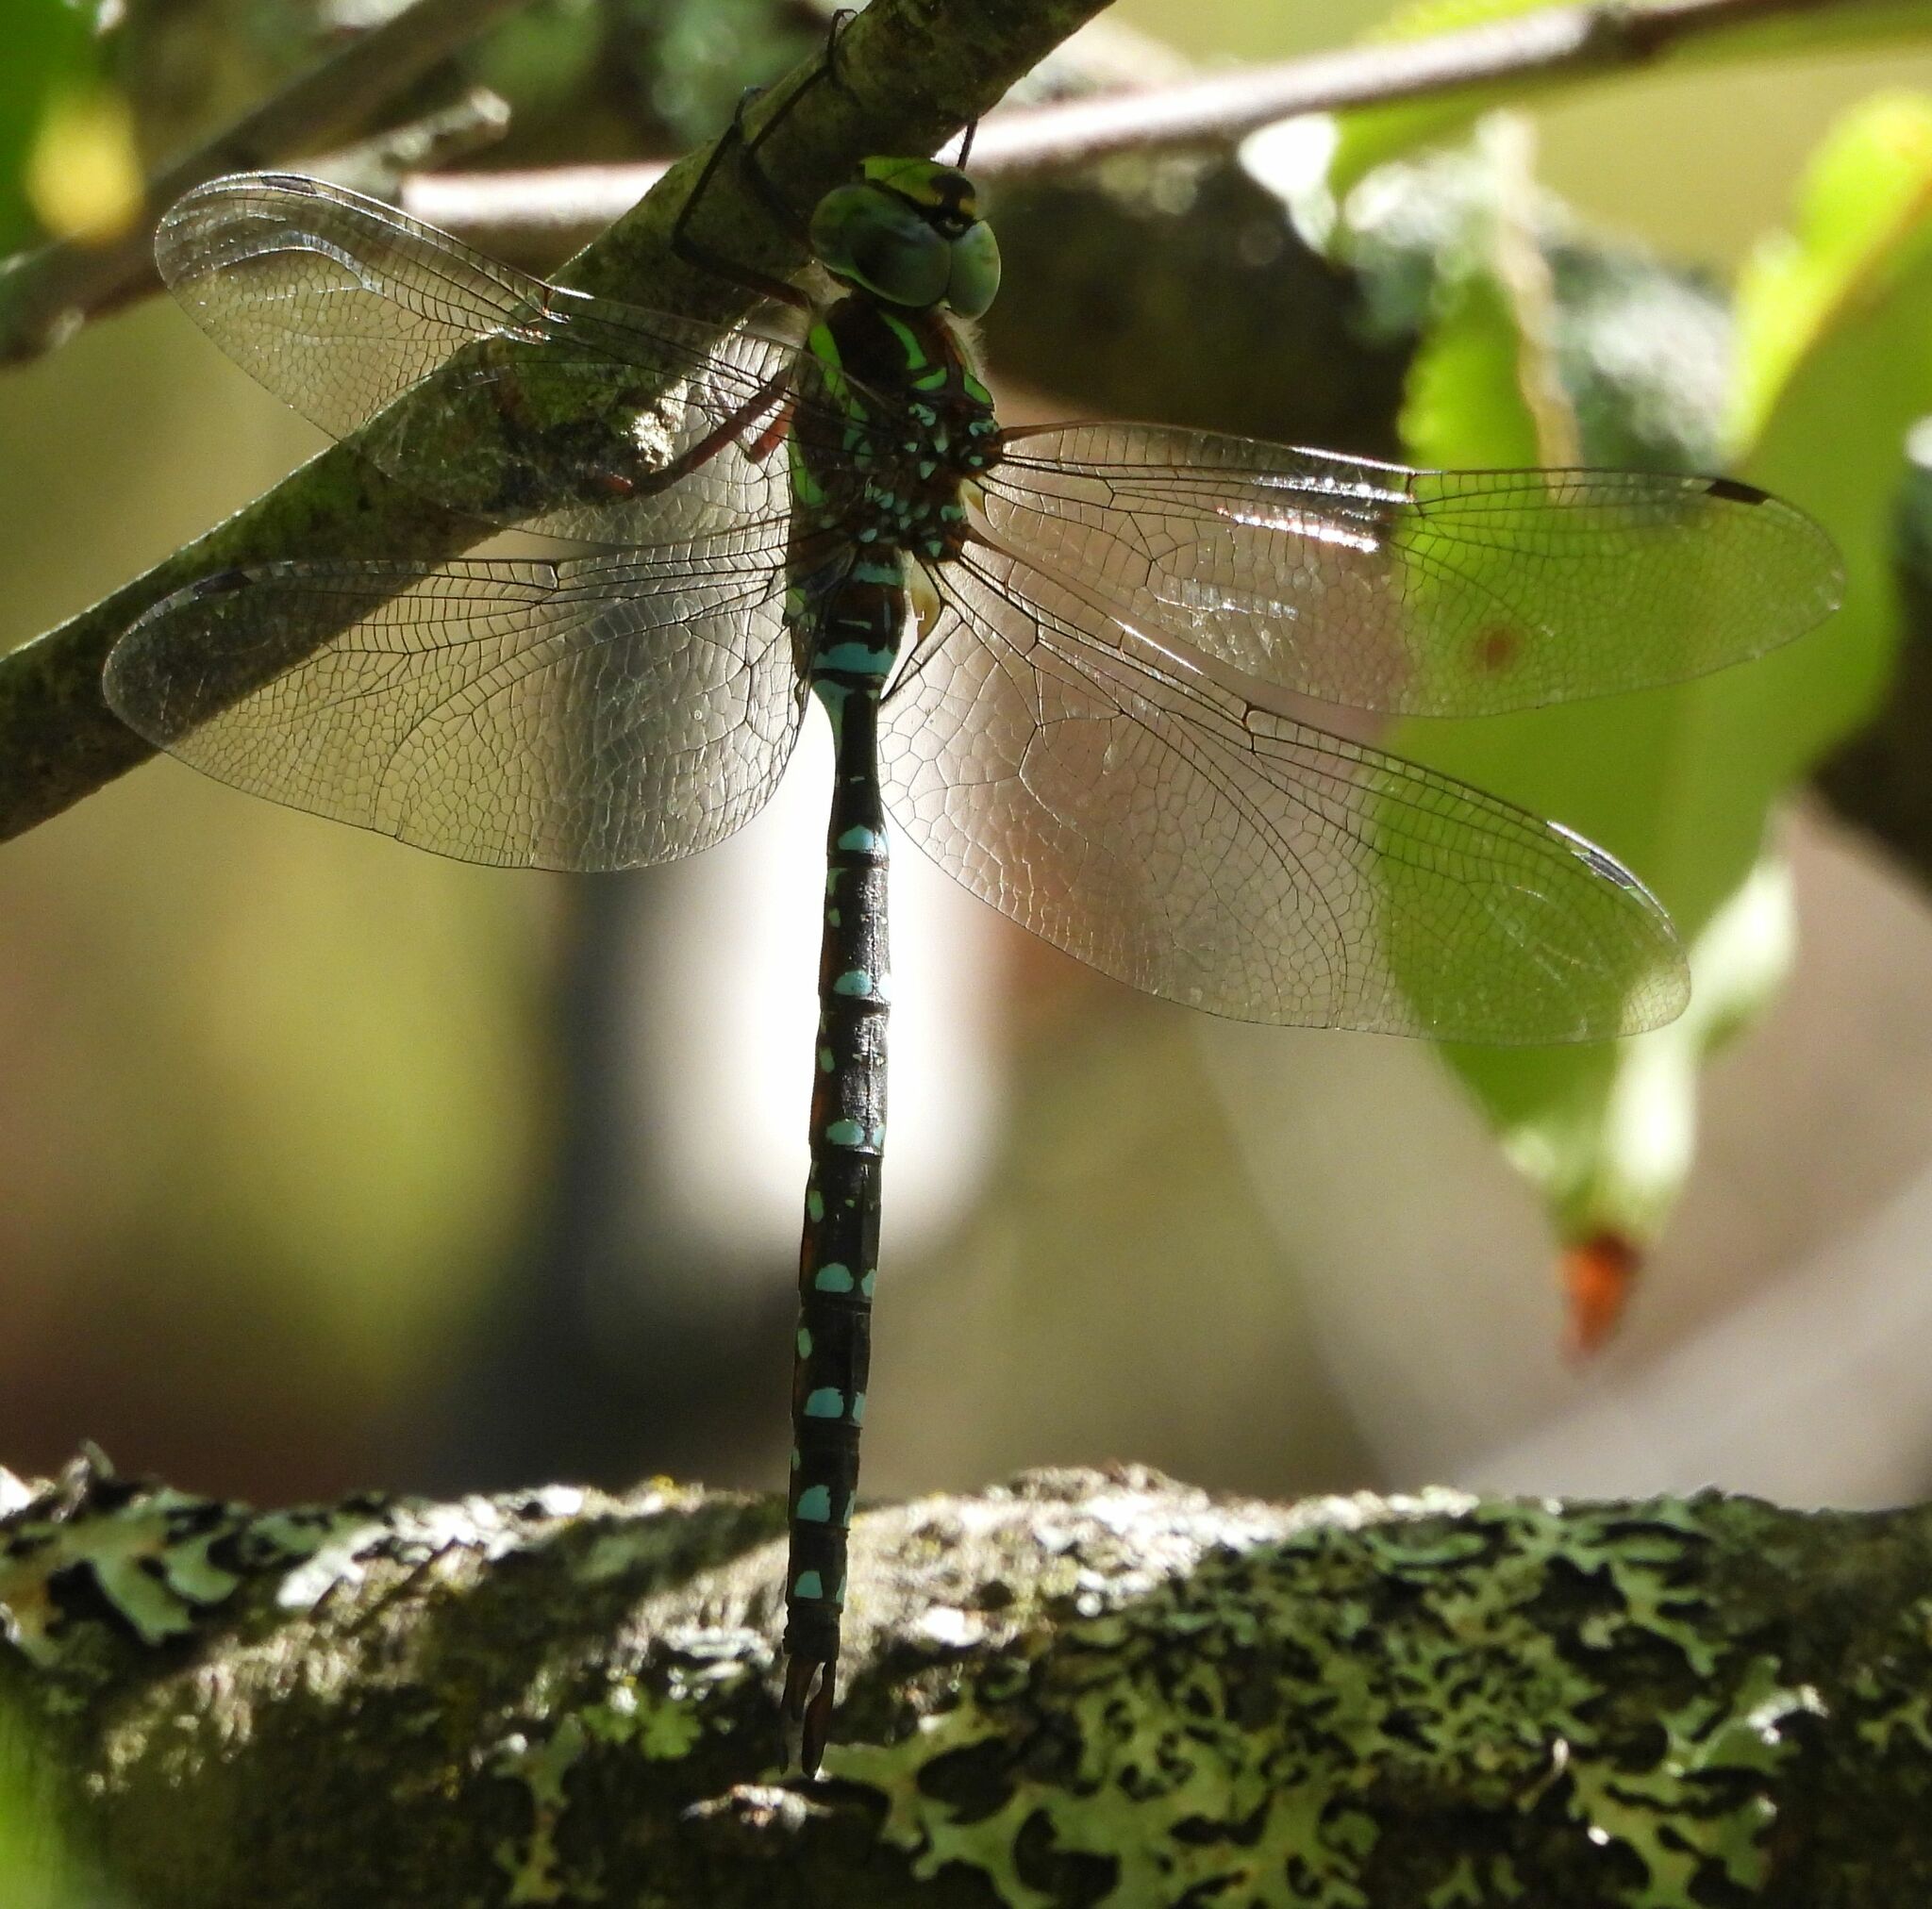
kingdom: Animalia
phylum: Arthropoda
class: Insecta
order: Odonata
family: Aeshnidae
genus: Aeshna
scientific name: Aeshna tuberculifera
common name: Aeschne à tubercules
